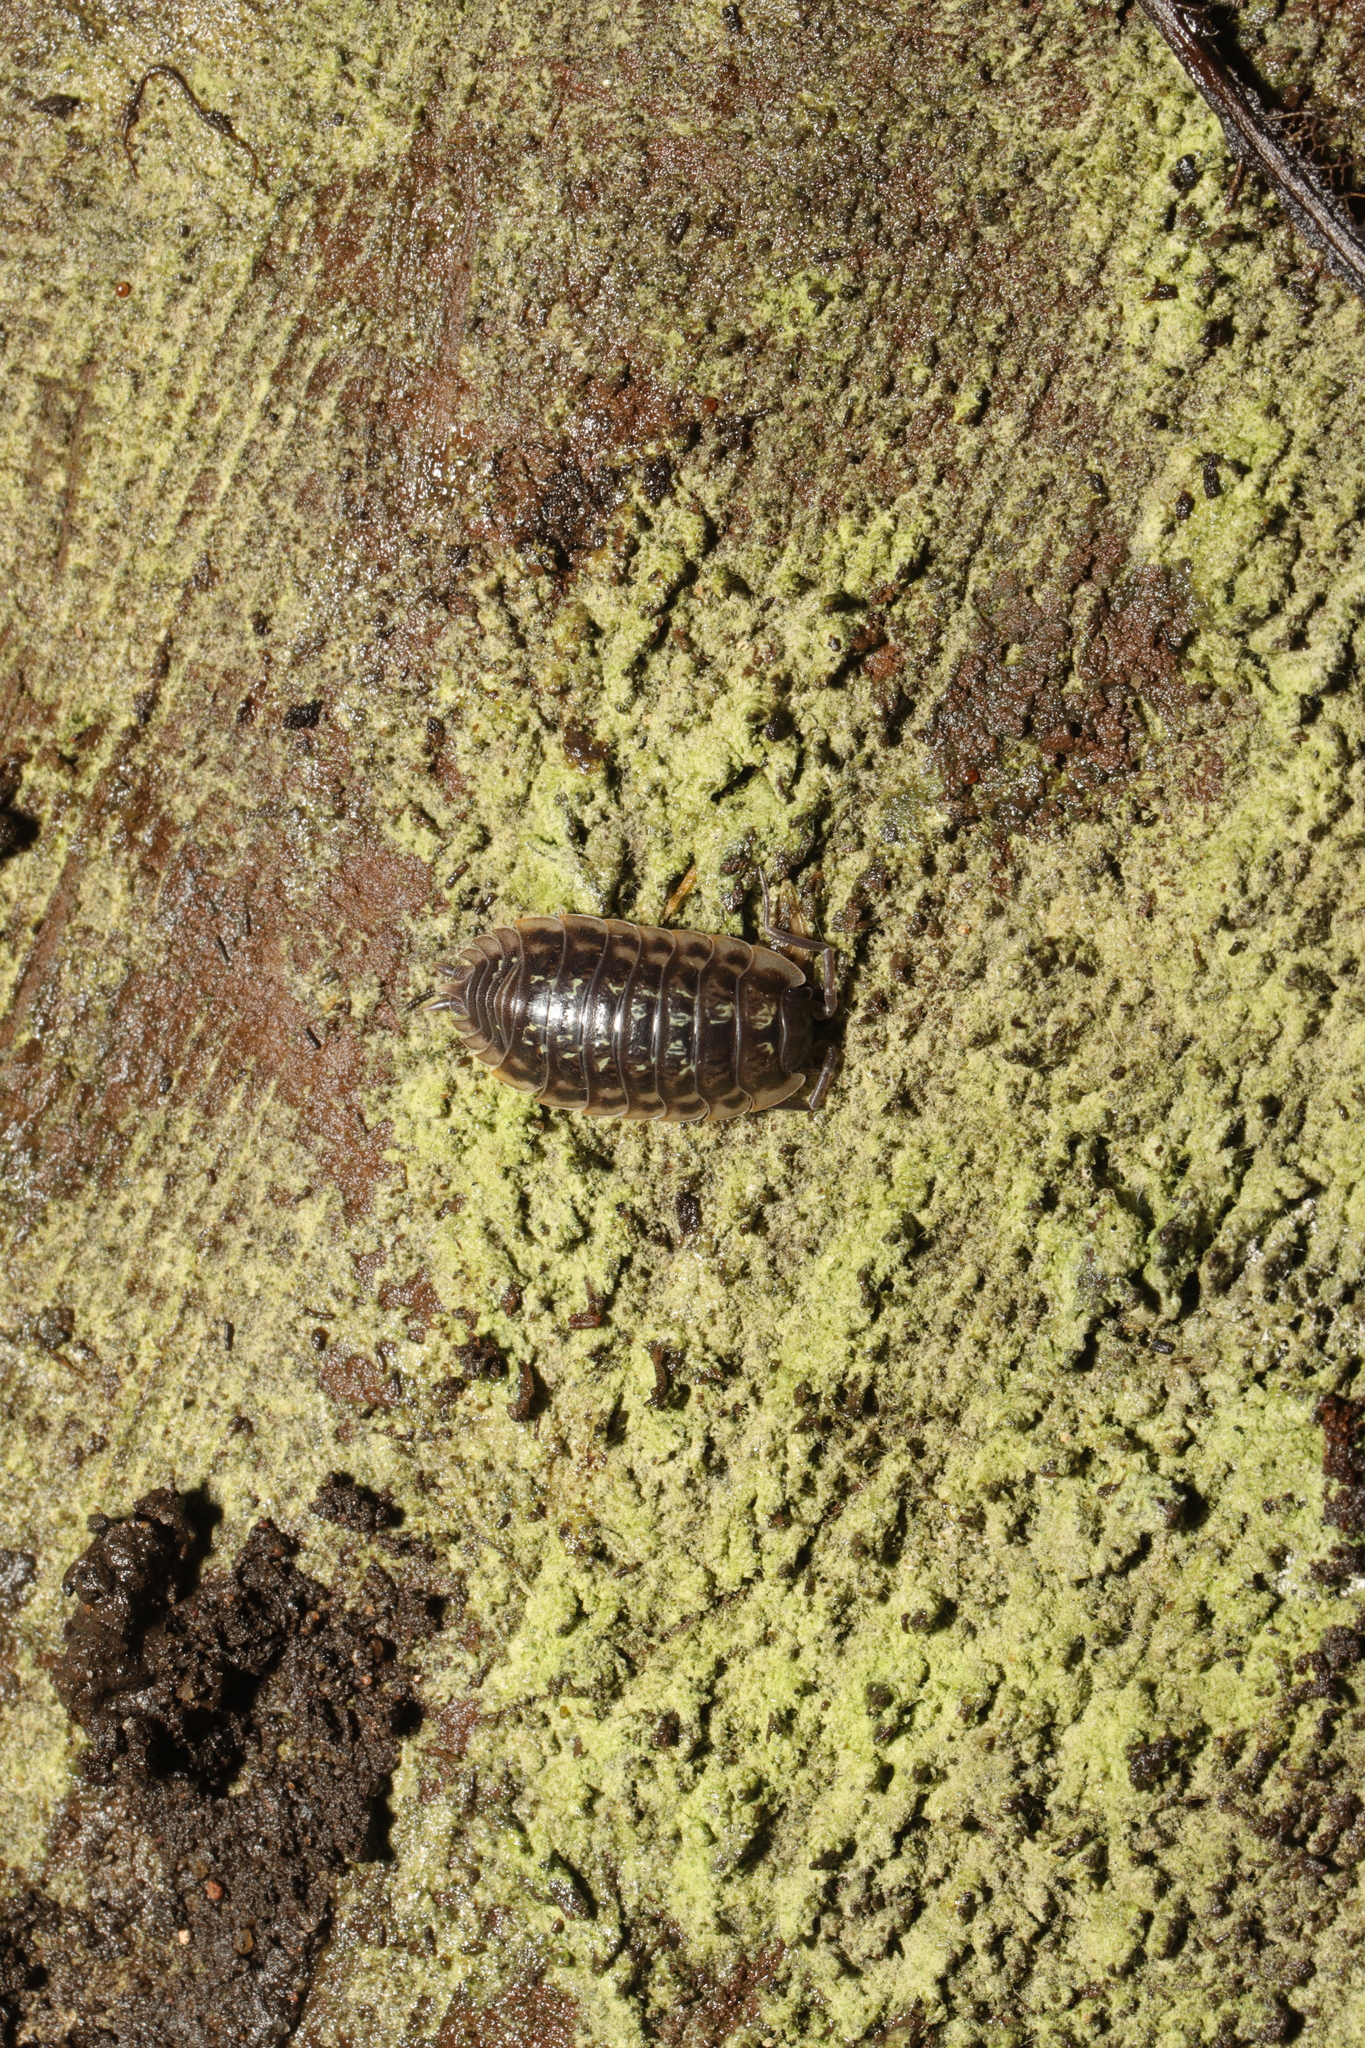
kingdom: Animalia
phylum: Arthropoda
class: Malacostraca
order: Isopoda
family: Oniscidae
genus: Oniscus
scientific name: Oniscus asellus
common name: Common shiny woodlouse
